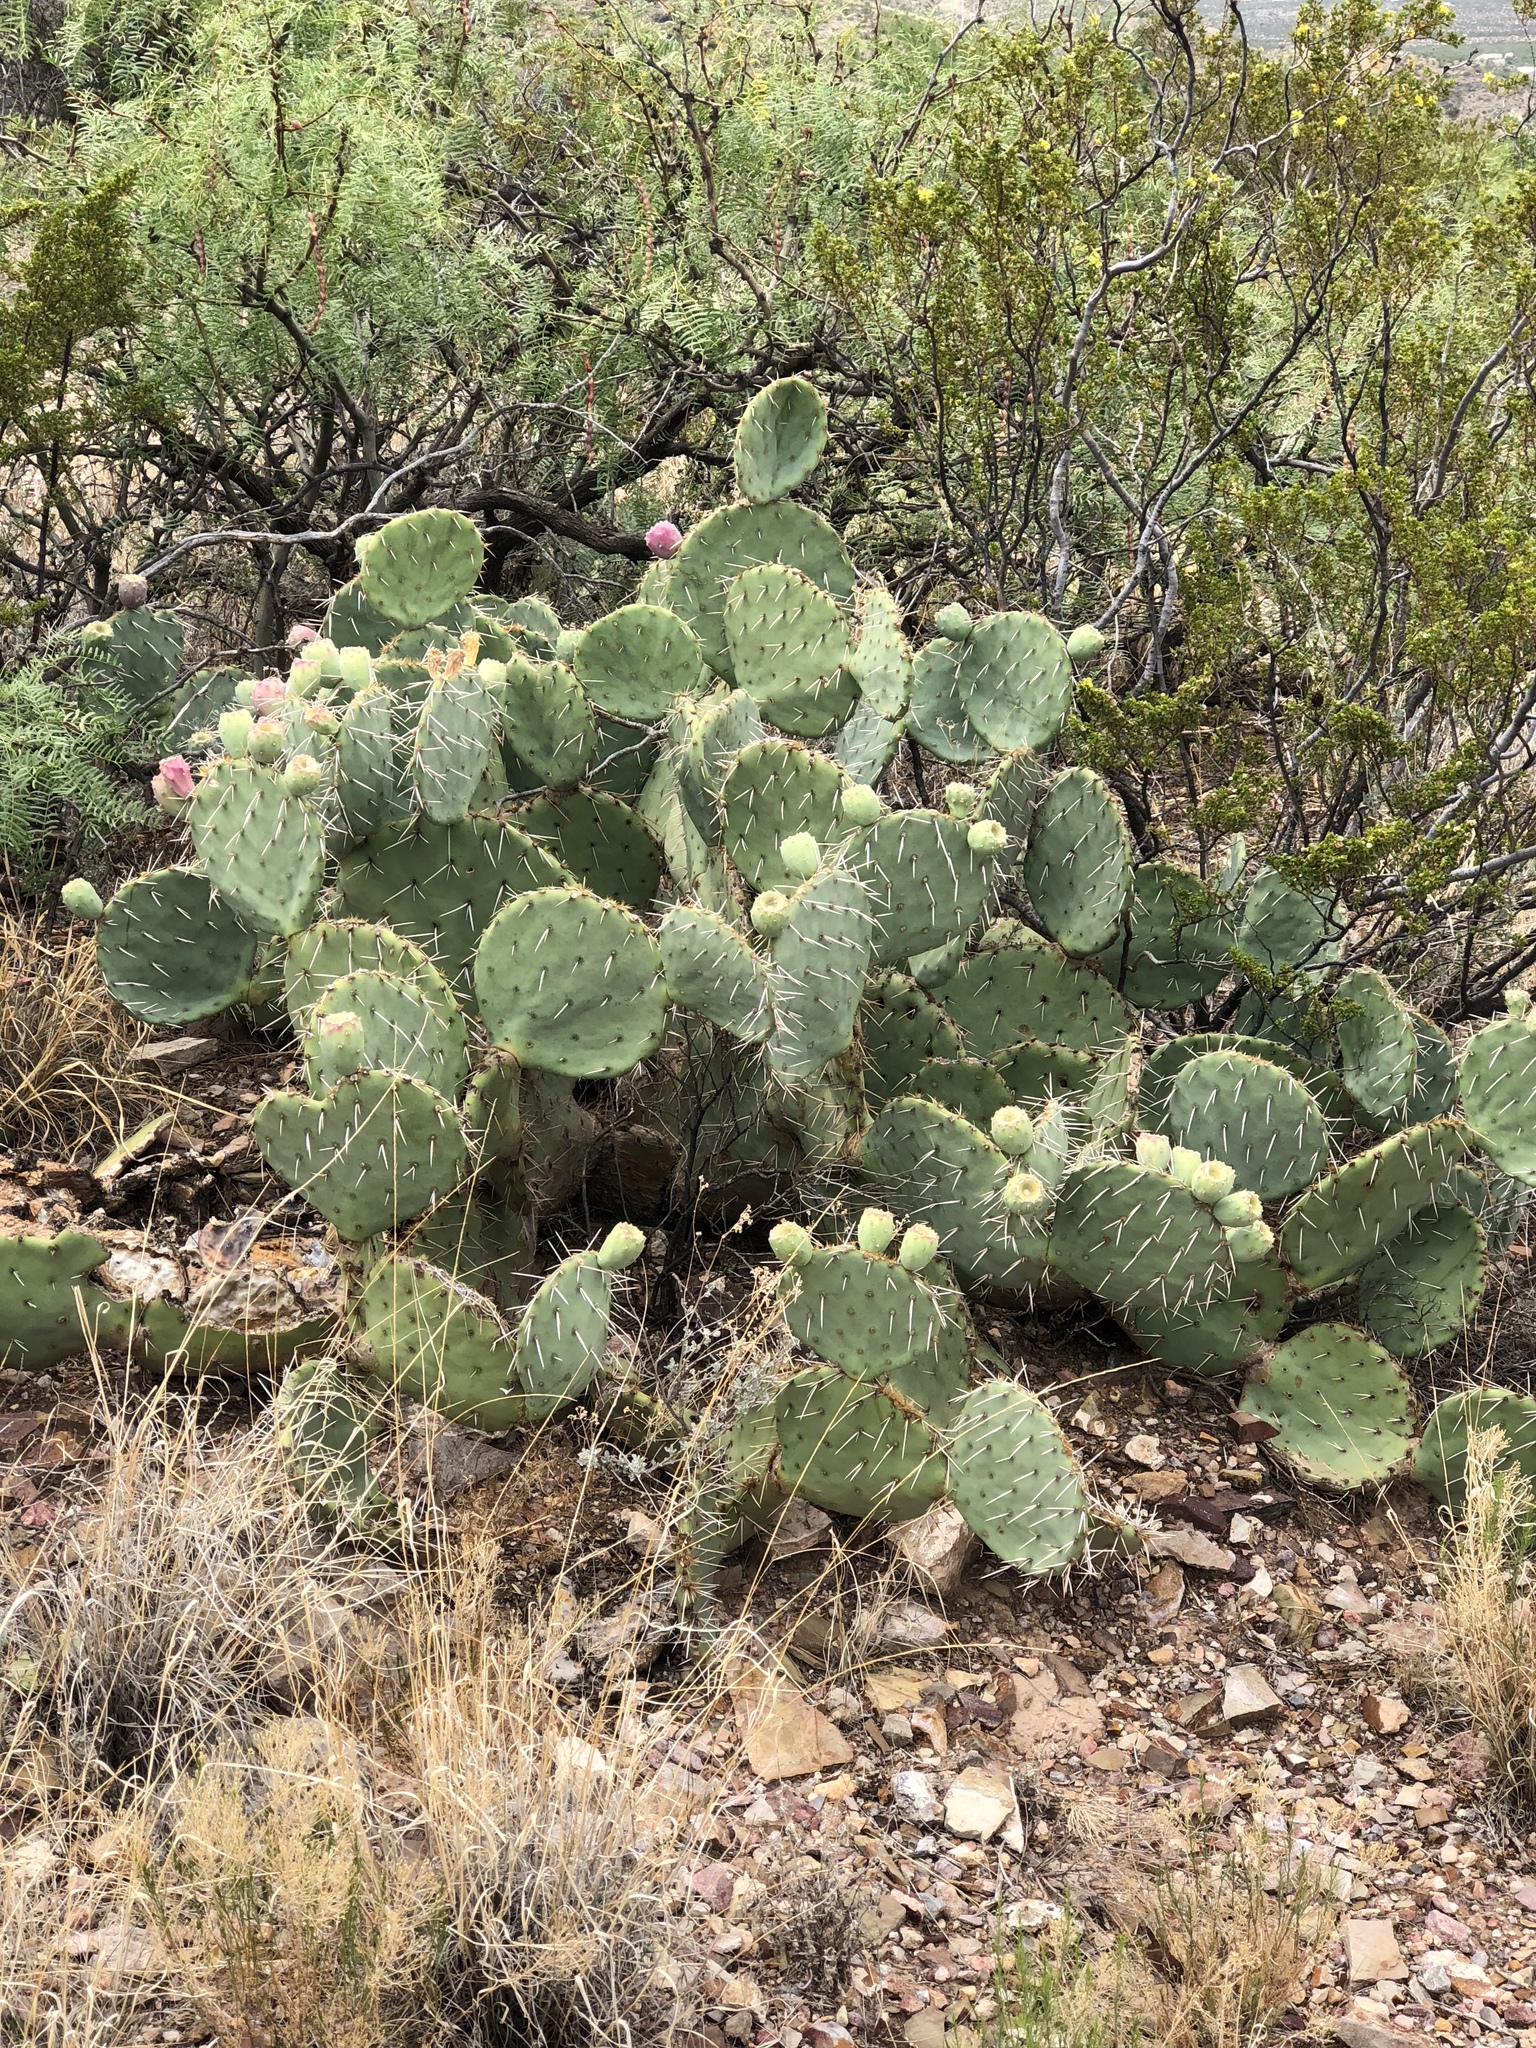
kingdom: Plantae
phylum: Tracheophyta
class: Magnoliopsida
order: Caryophyllales
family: Cactaceae
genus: Opuntia
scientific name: Opuntia engelmannii
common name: Cactus-apple
